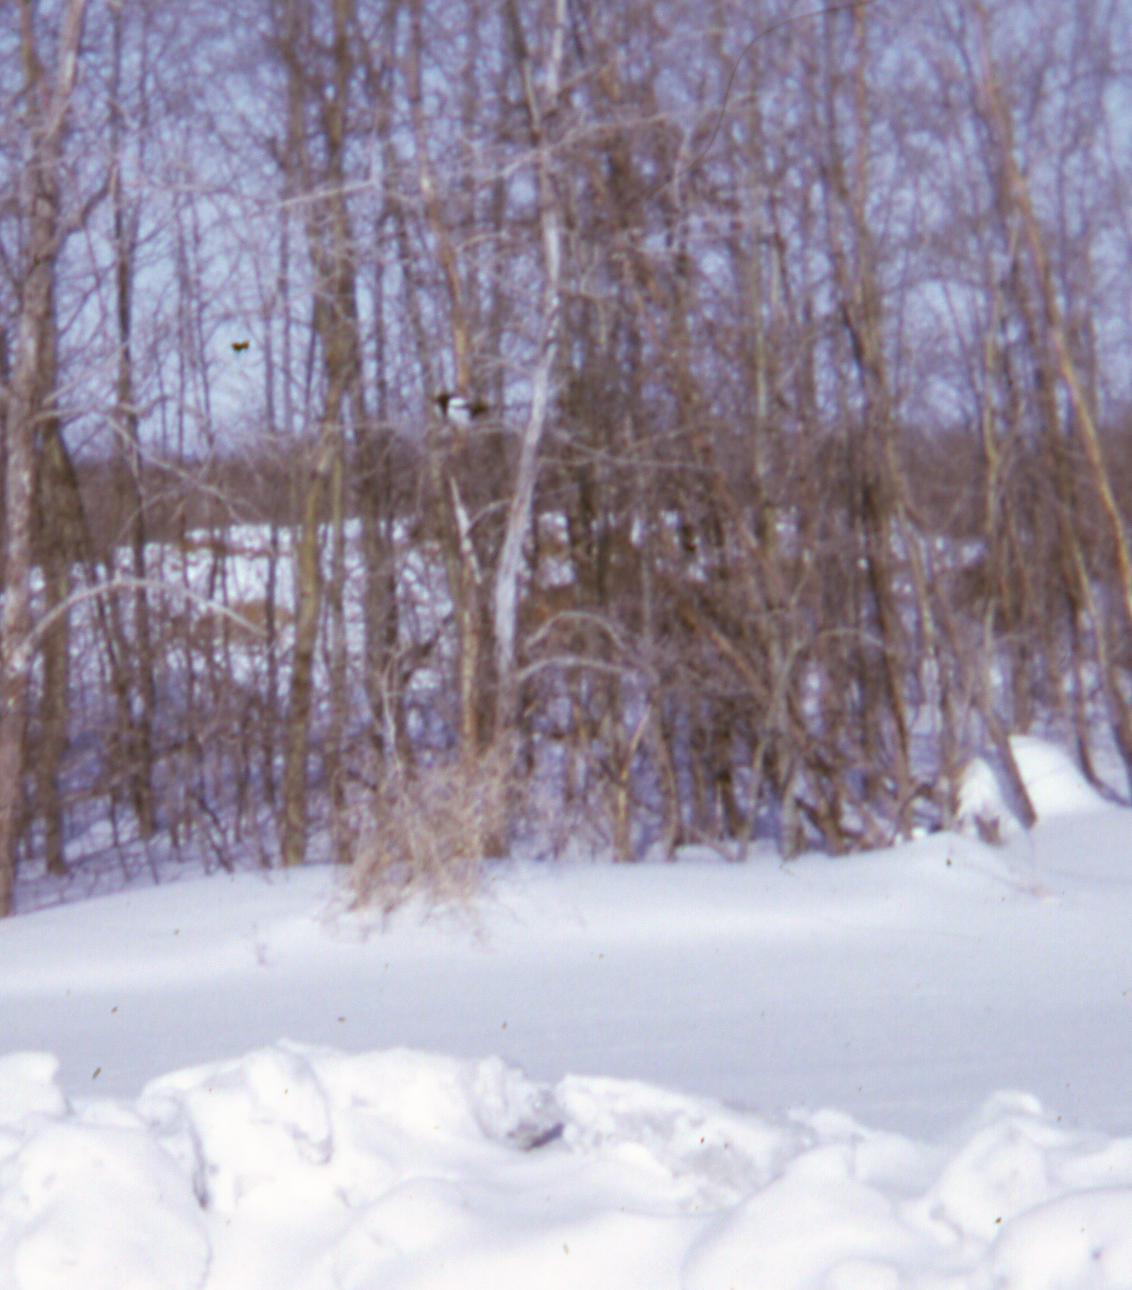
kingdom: Animalia
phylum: Chordata
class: Aves
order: Passeriformes
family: Corvidae
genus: Pica
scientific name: Pica hudsonia
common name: Black-billed magpie
